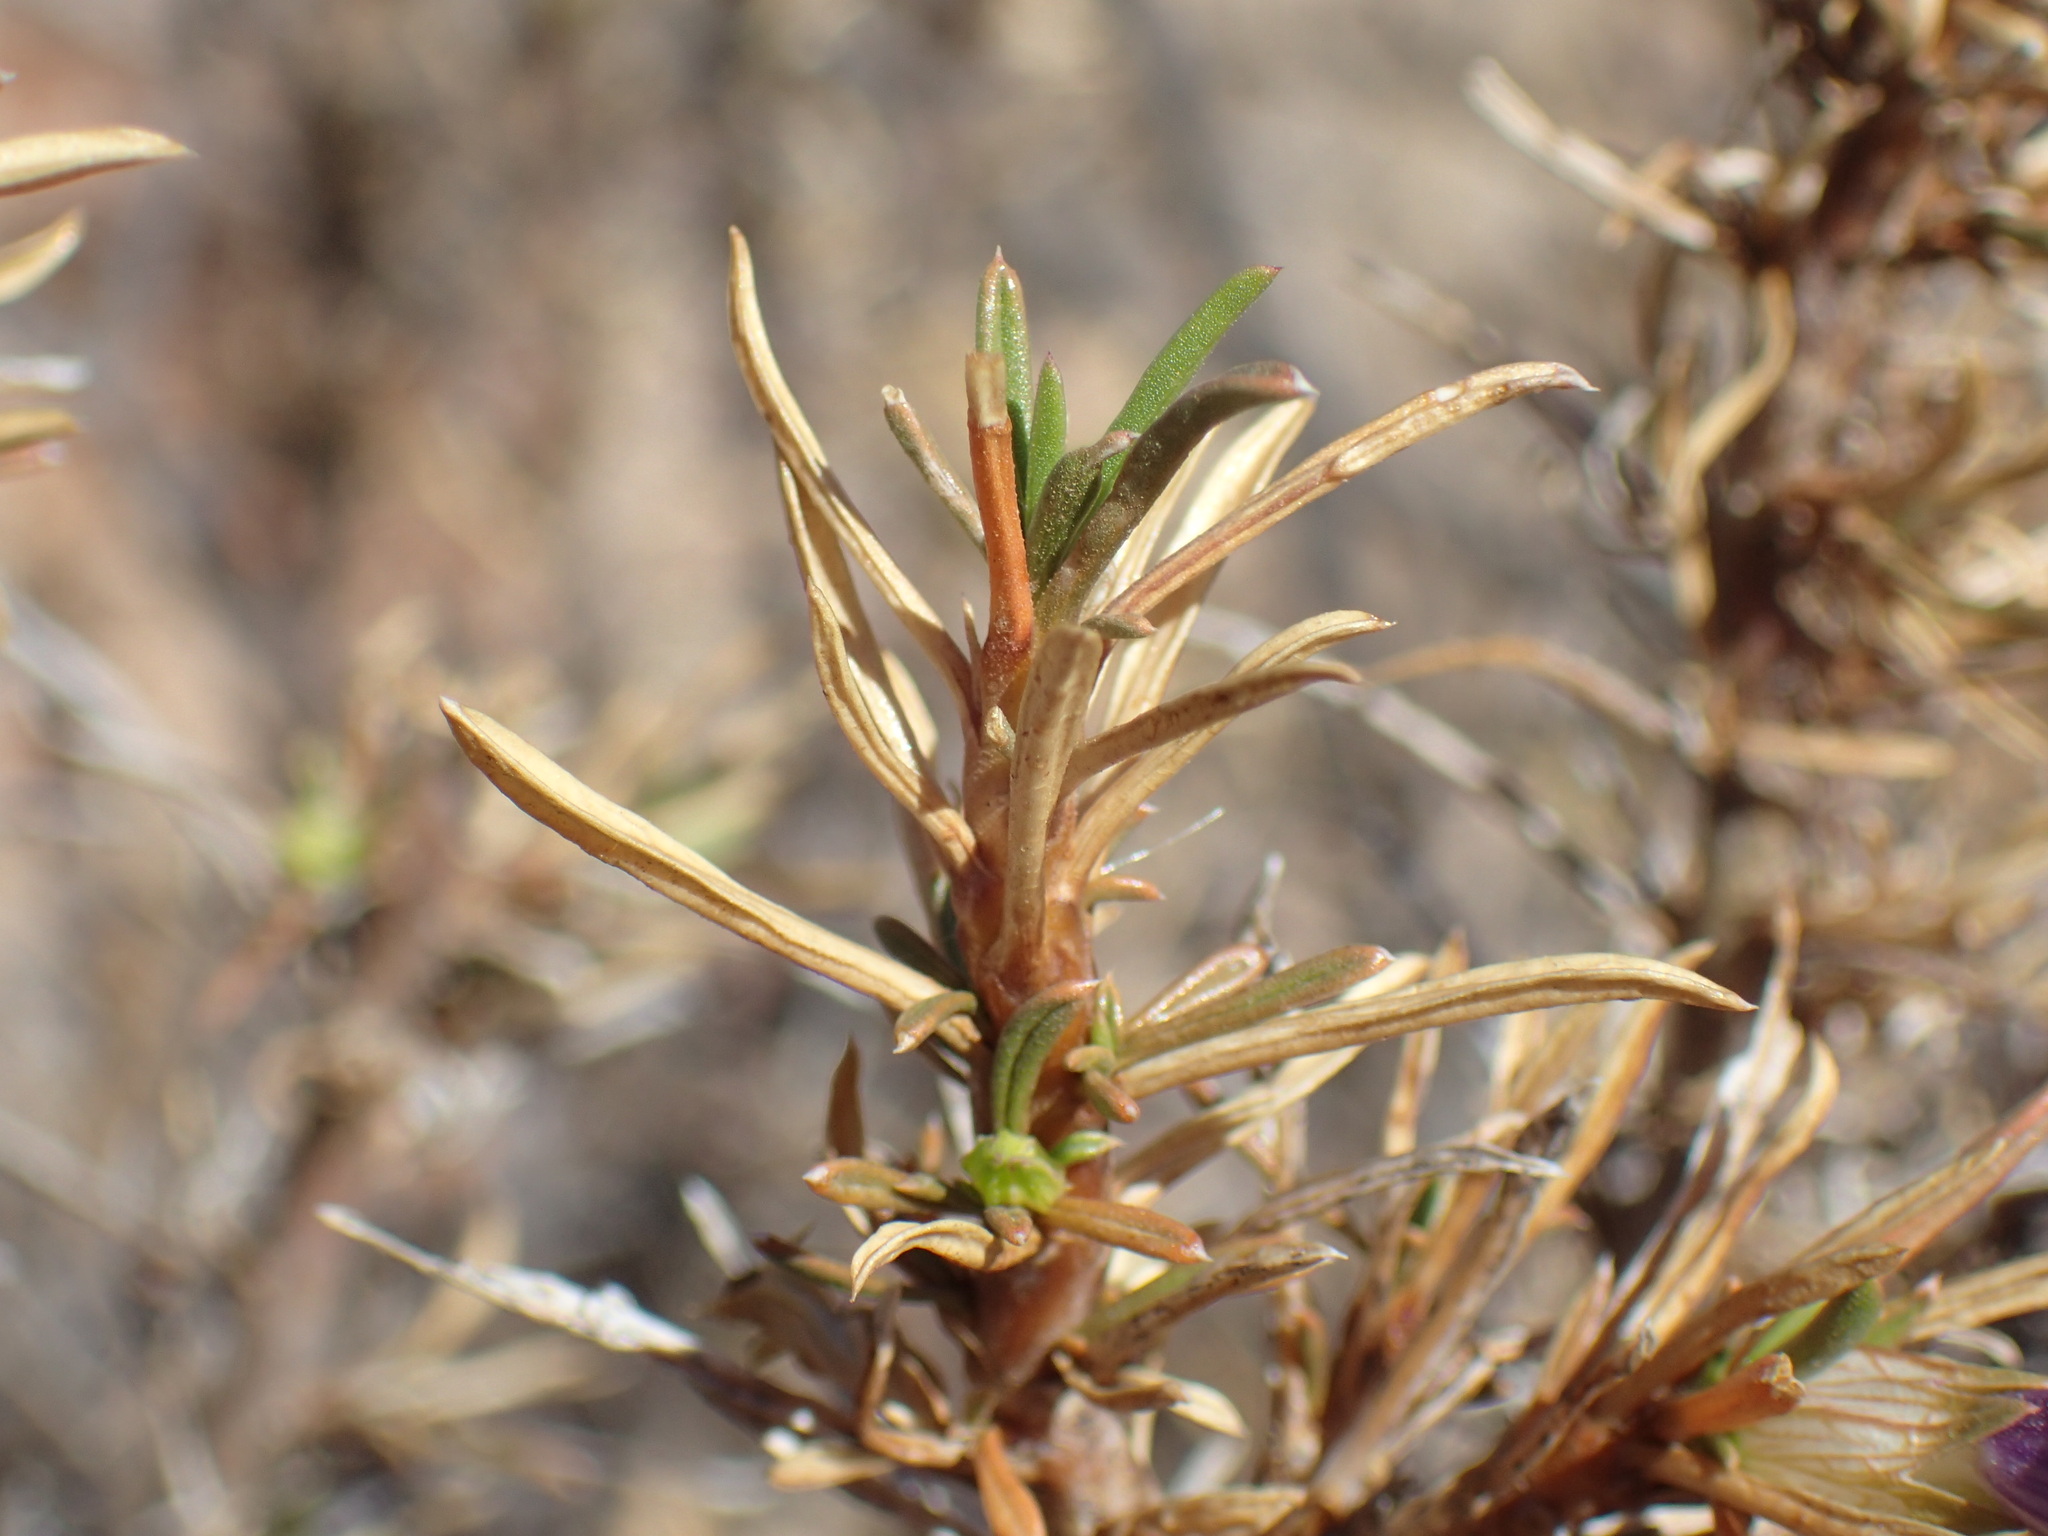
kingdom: Plantae
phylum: Tracheophyta
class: Magnoliopsida
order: Lamiales
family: Scrophulariaceae
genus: Aptosimum
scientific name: Aptosimum spinescens
